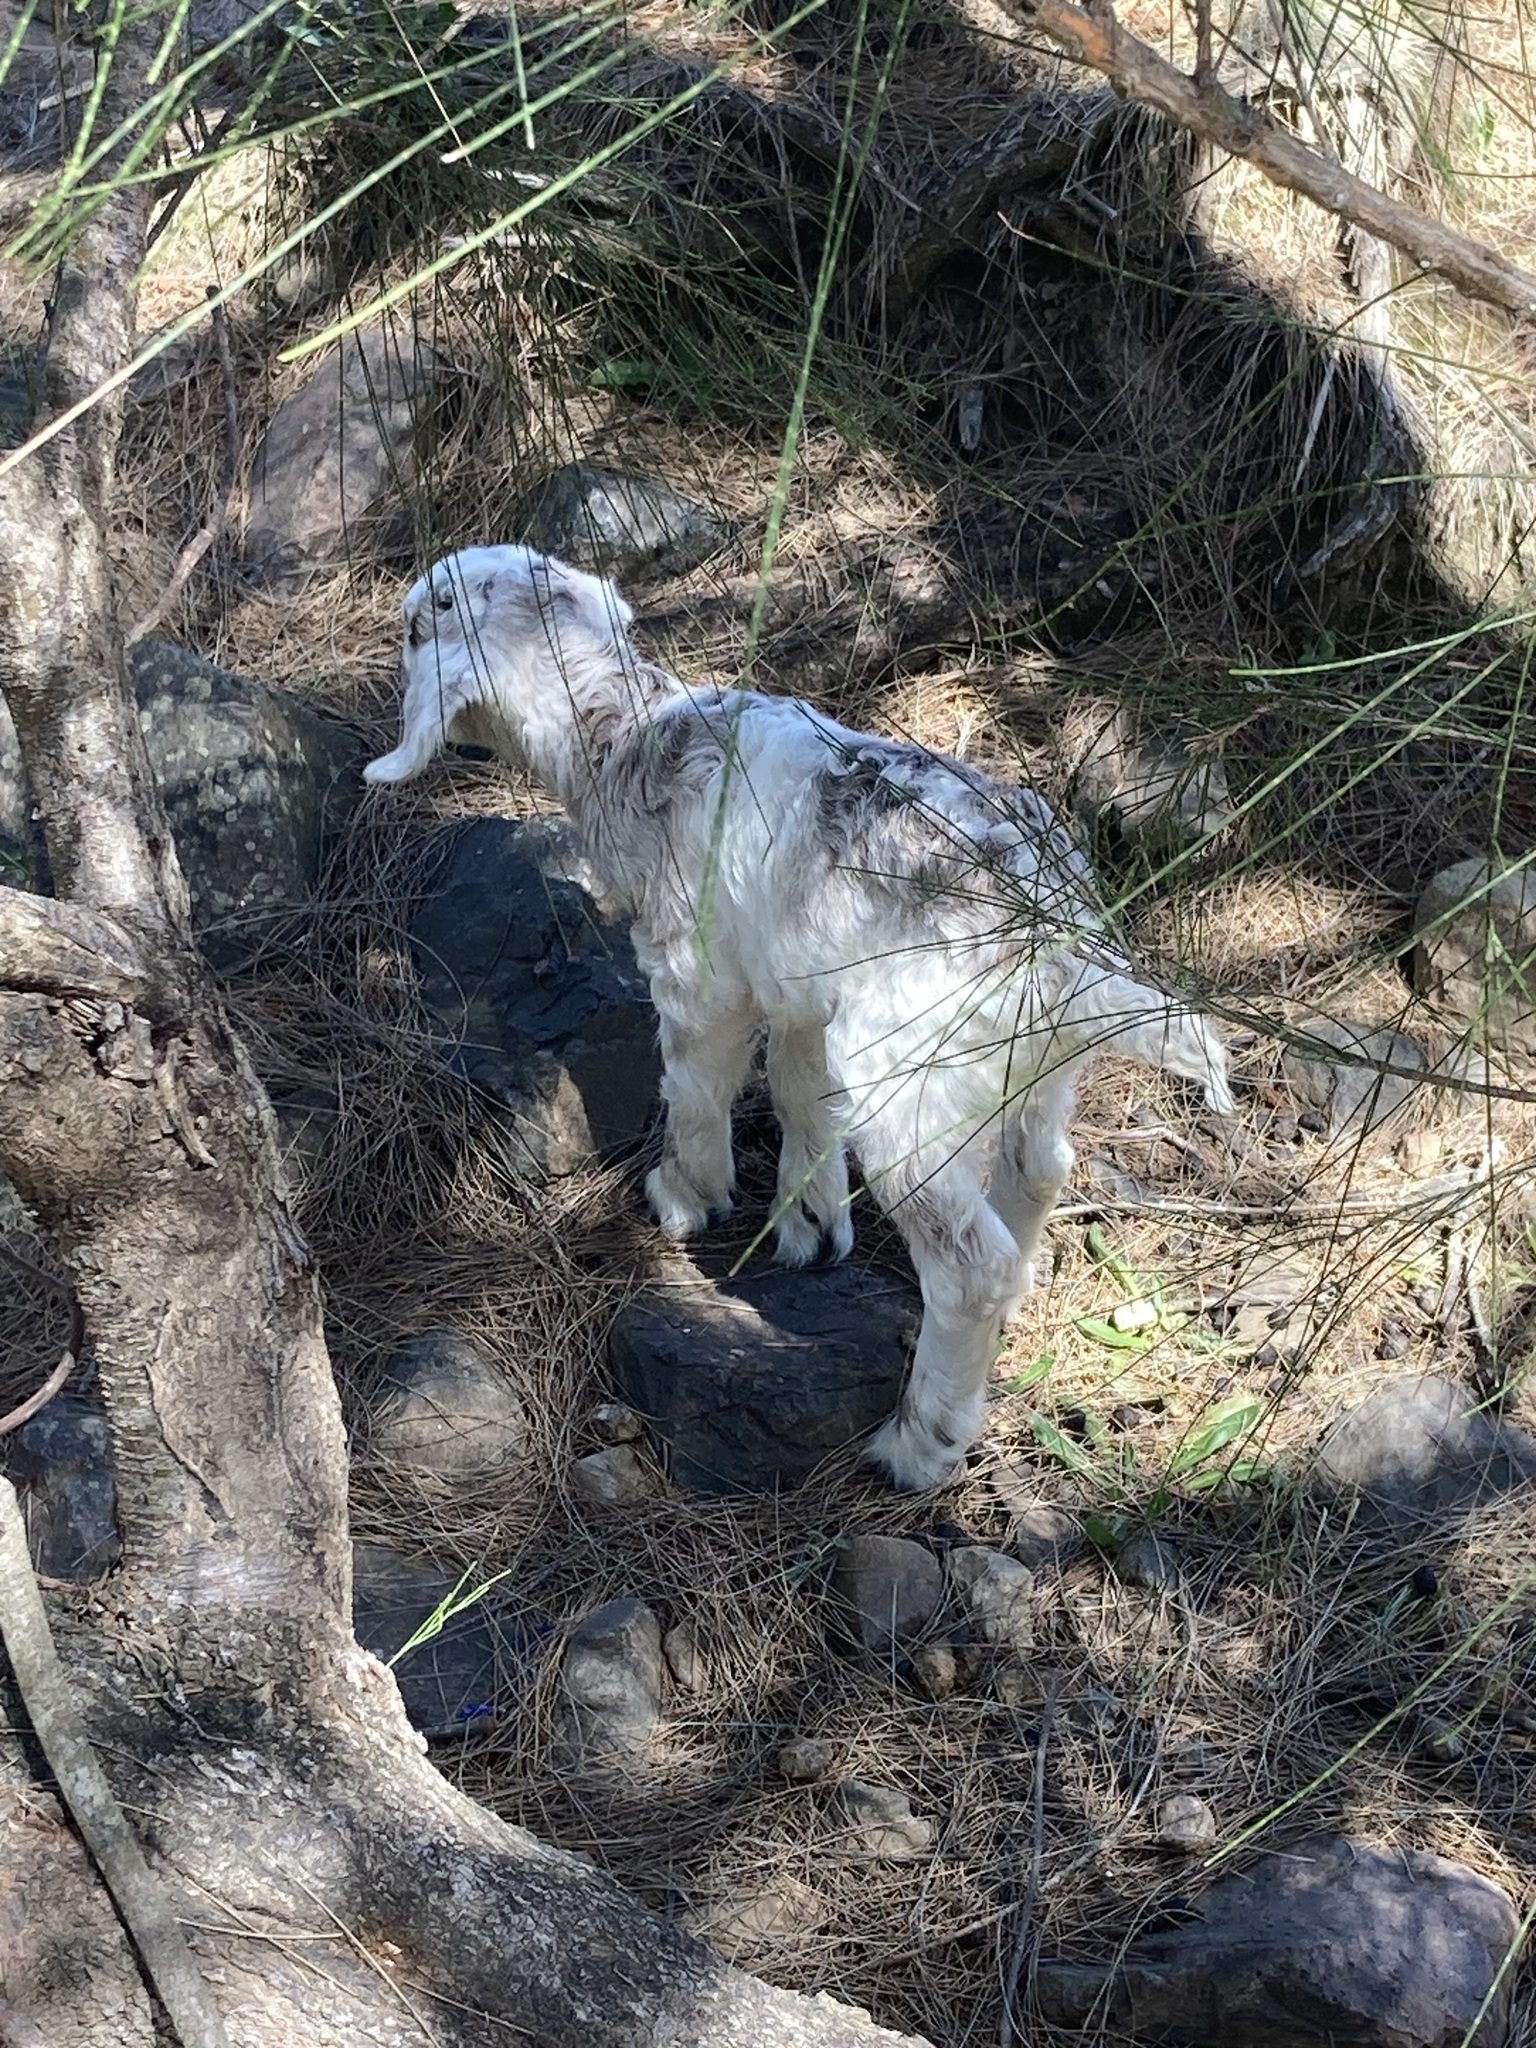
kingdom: Animalia
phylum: Chordata
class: Mammalia
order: Artiodactyla
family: Bovidae
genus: Capra
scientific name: Capra hircus
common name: Domestic goat
